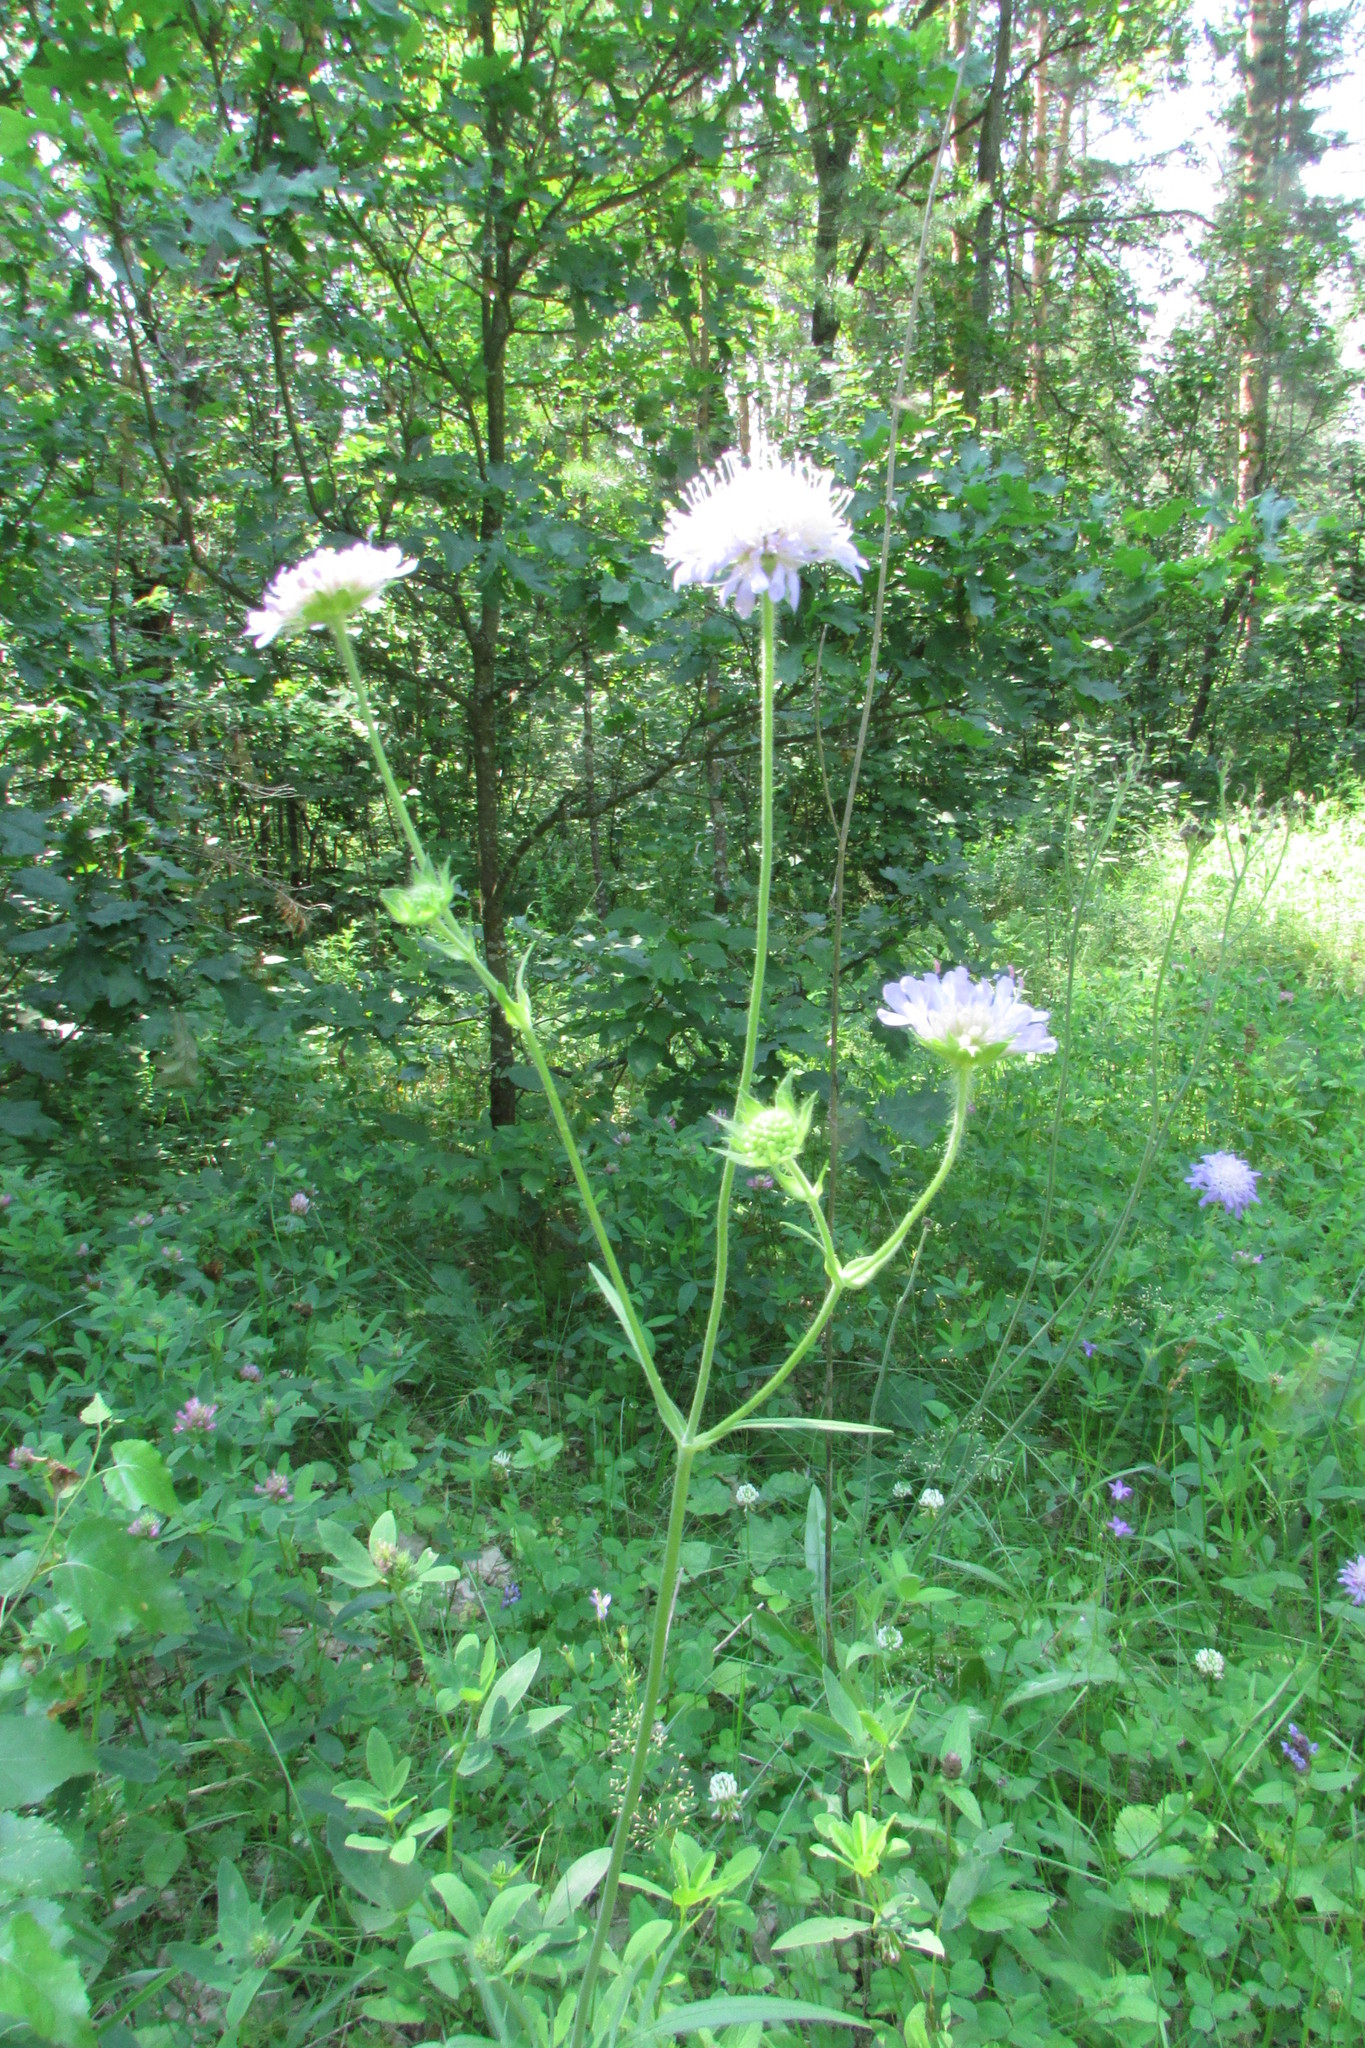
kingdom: Plantae
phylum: Tracheophyta
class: Magnoliopsida
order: Dipsacales
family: Caprifoliaceae
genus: Knautia
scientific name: Knautia arvensis
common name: Field scabiosa
